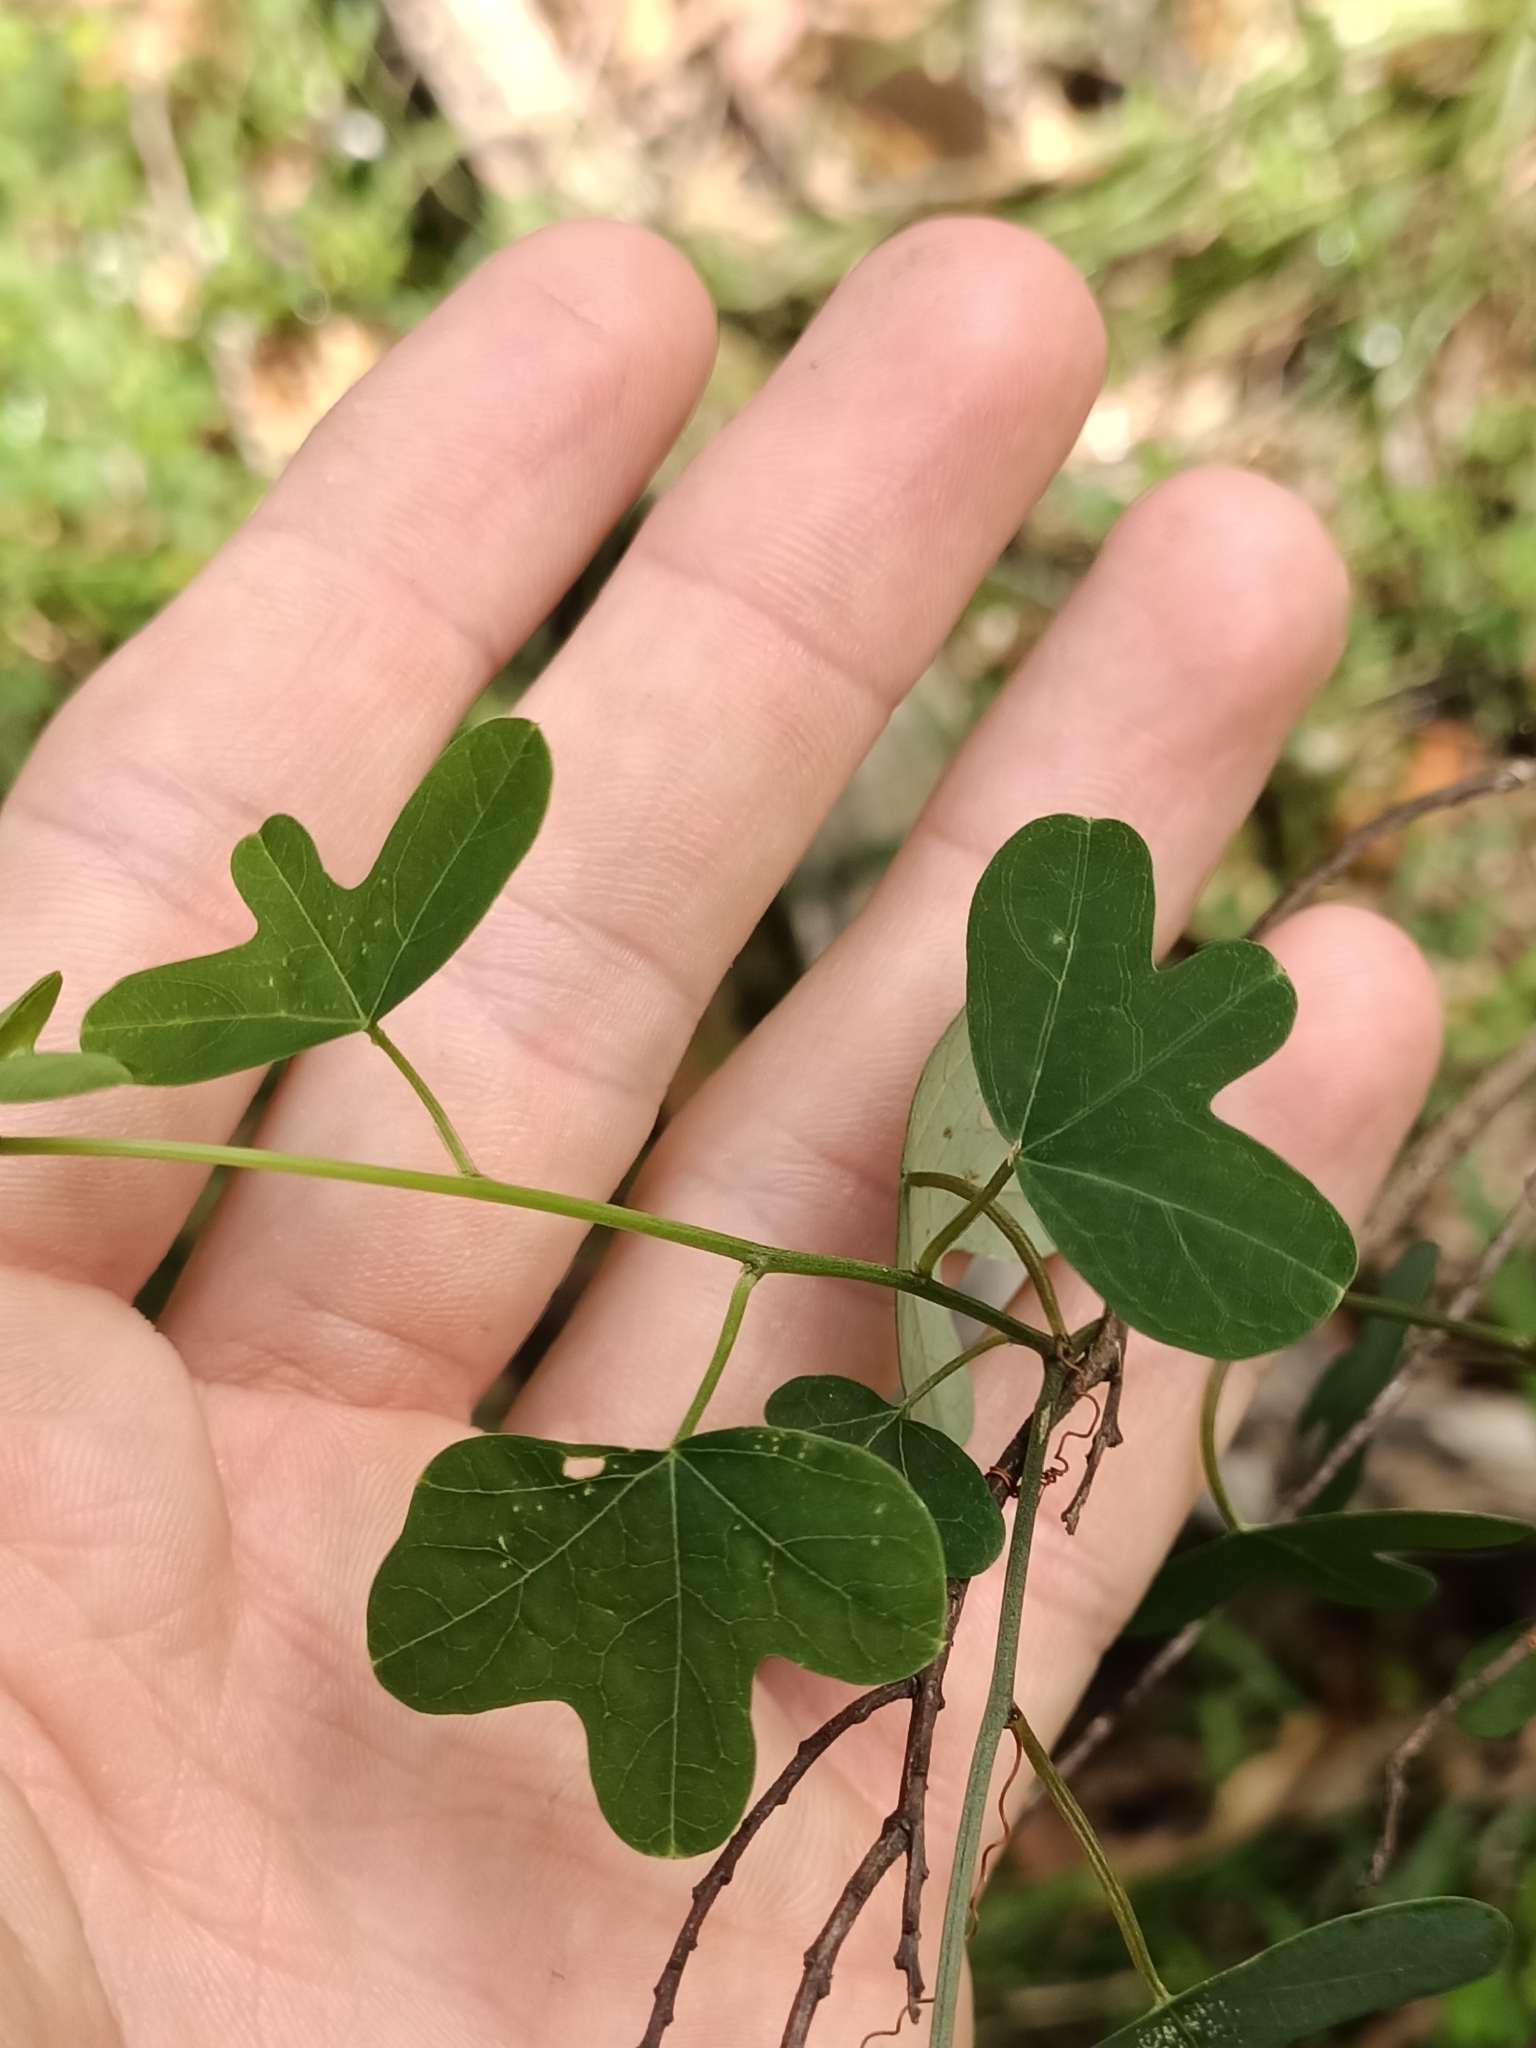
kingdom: Plantae
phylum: Tracheophyta
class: Magnoliopsida
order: Malpighiales
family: Passifloraceae
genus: Passiflora
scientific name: Passiflora aurantia
